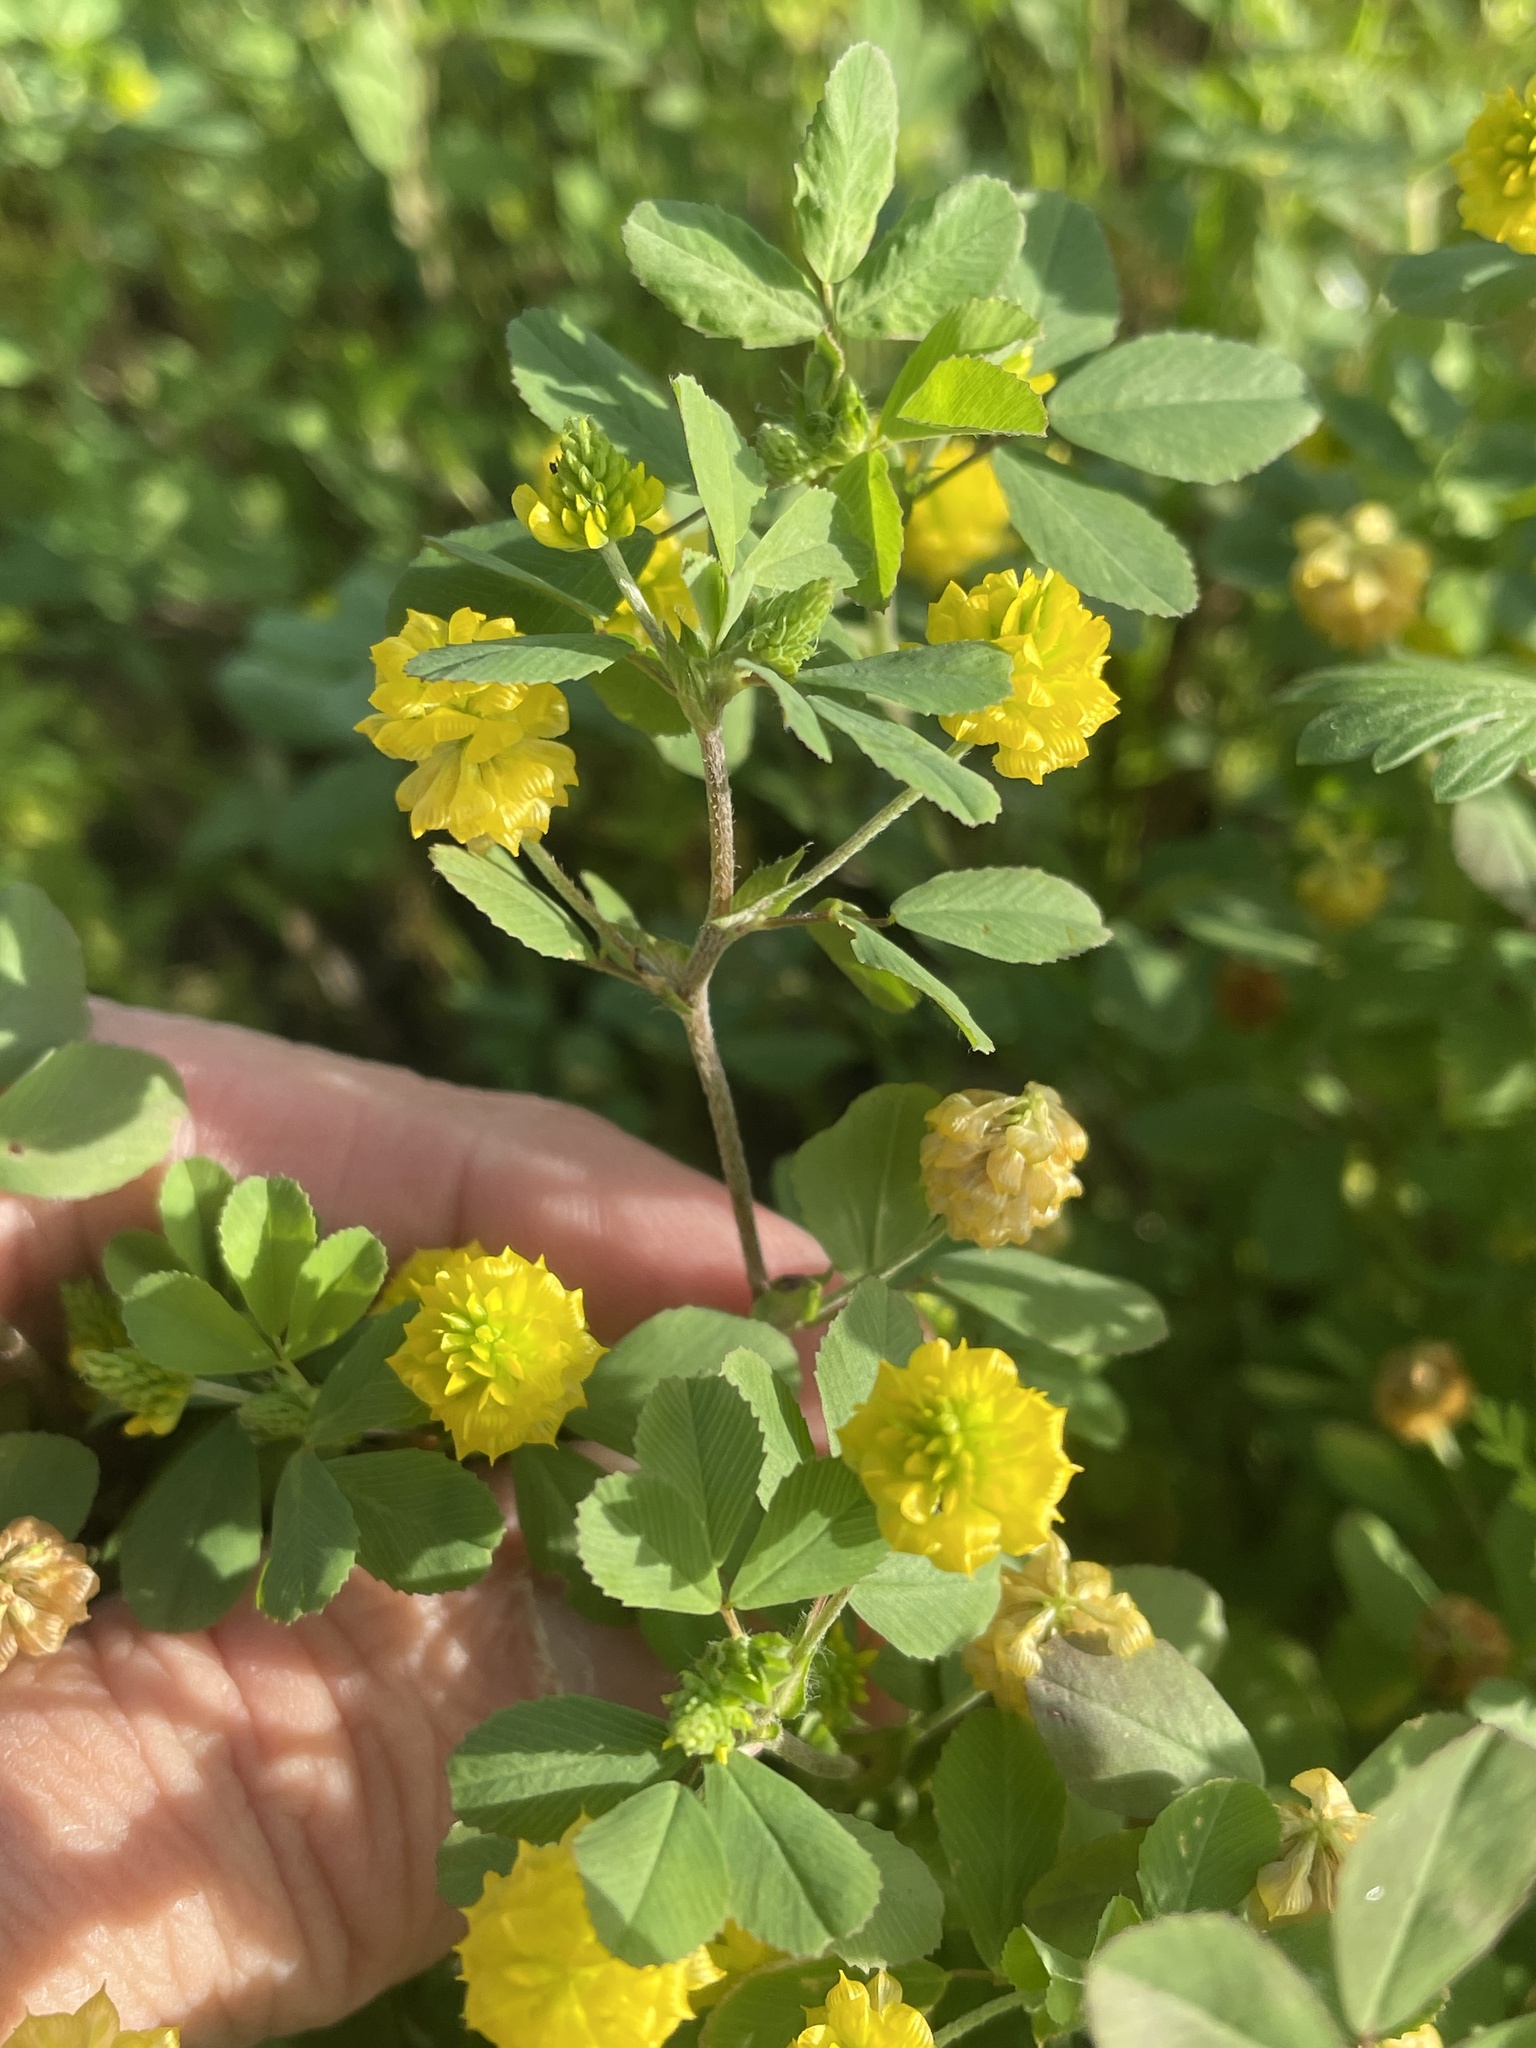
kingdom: Plantae
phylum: Tracheophyta
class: Magnoliopsida
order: Fabales
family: Fabaceae
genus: Trifolium
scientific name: Trifolium campestre
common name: Field clover
